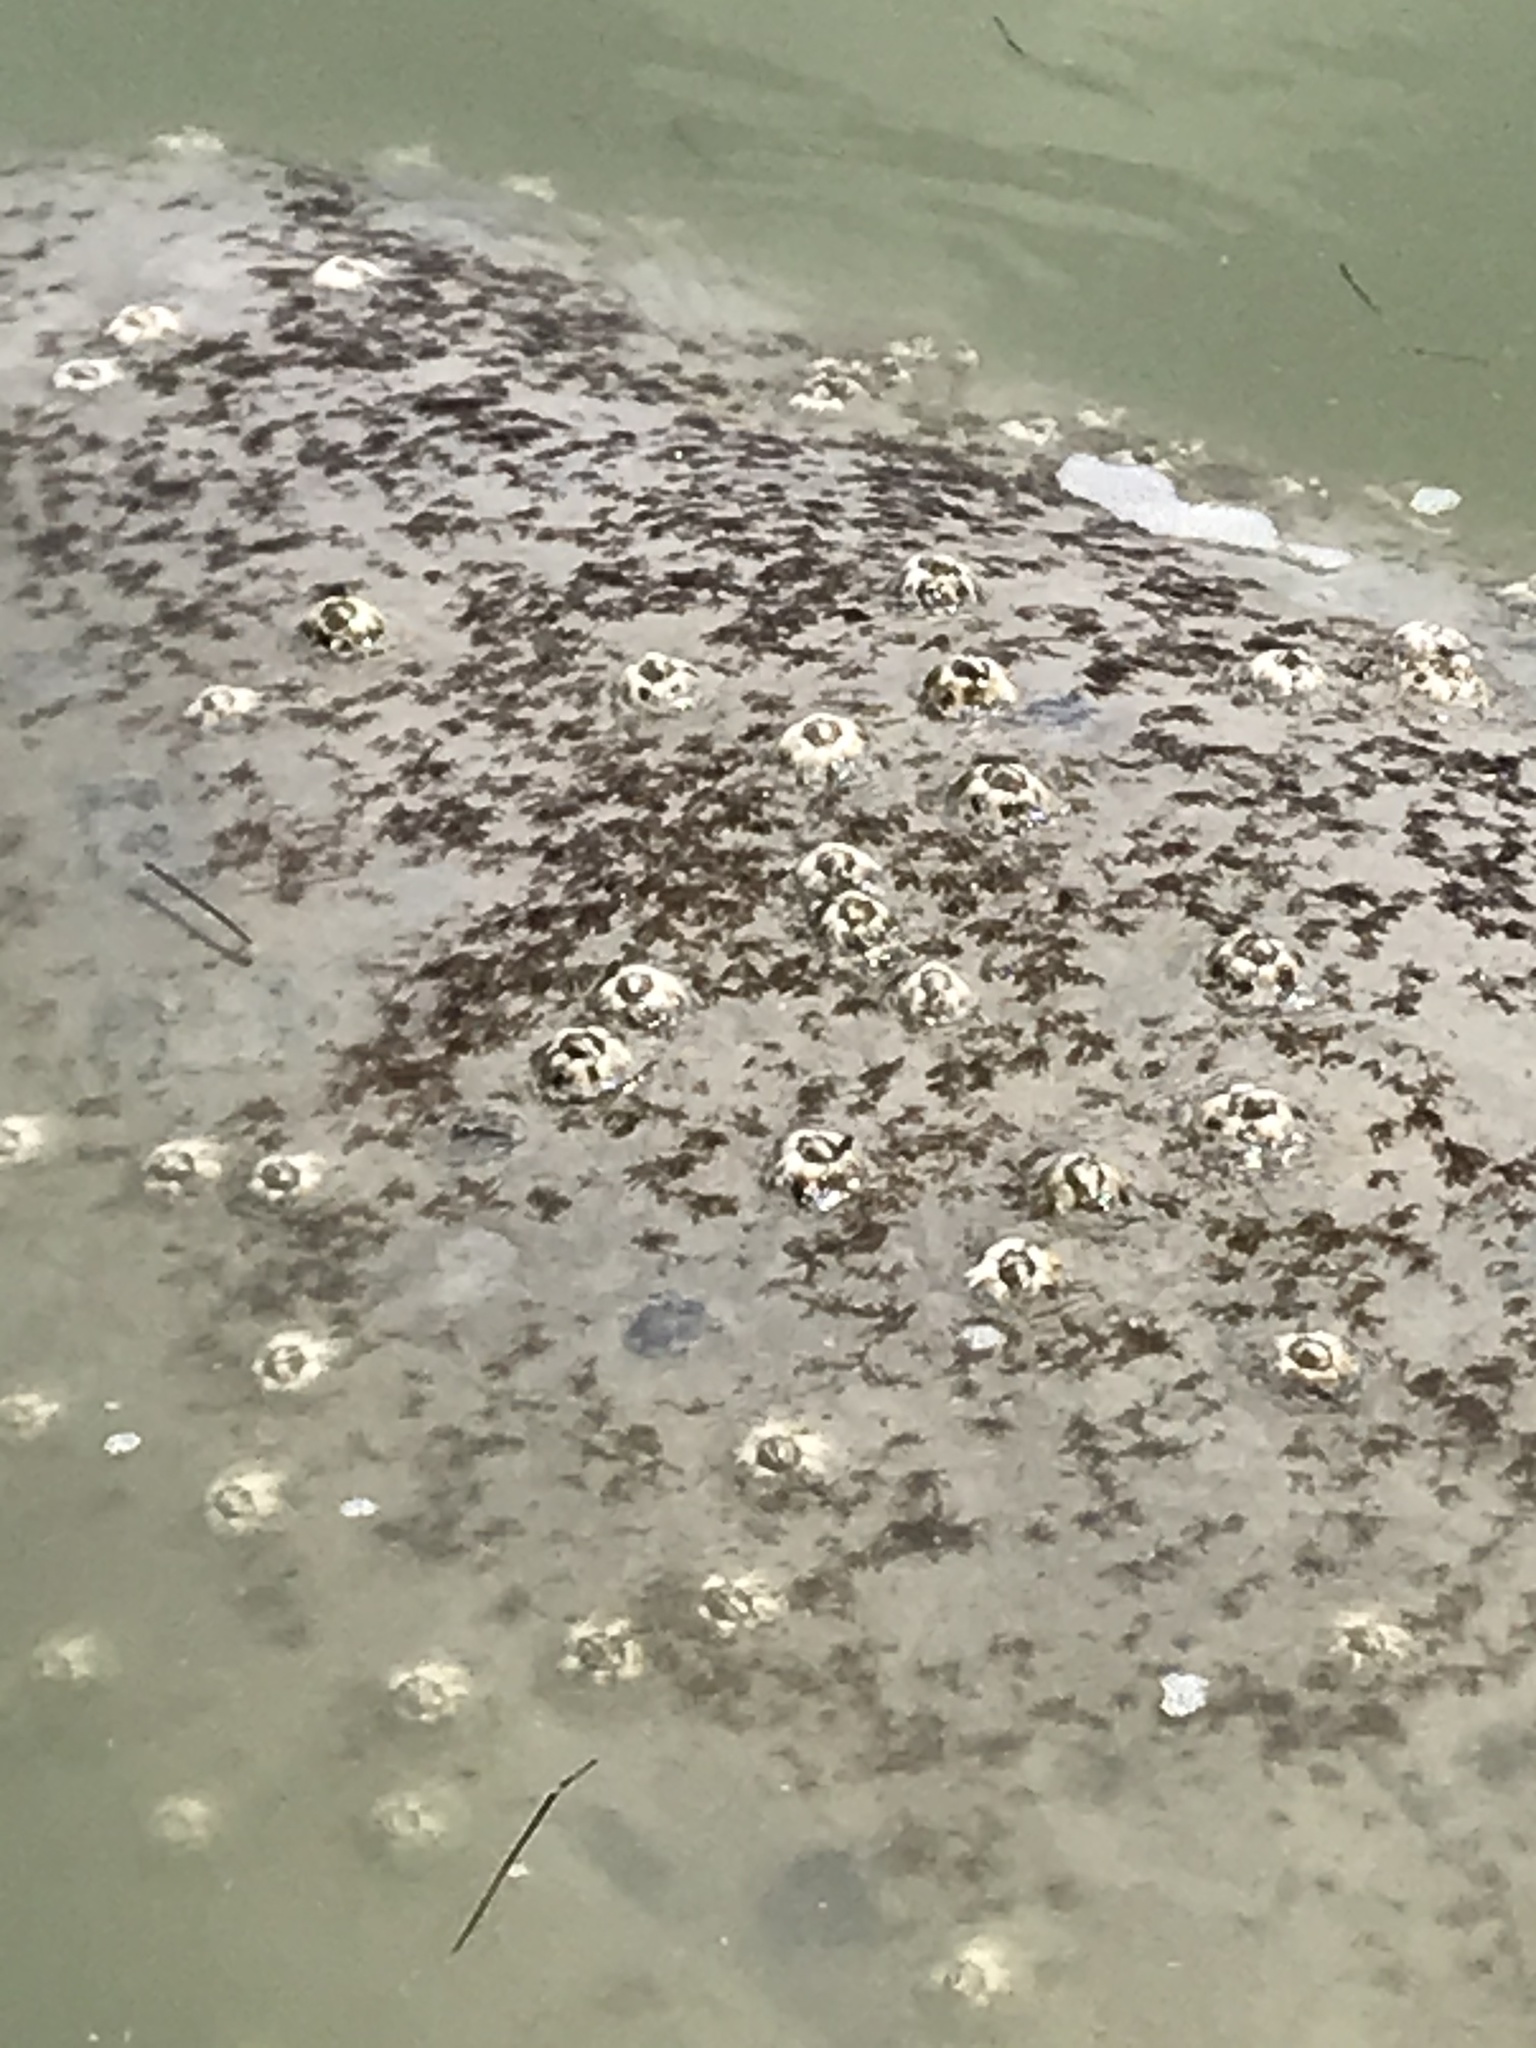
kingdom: Animalia
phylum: Arthropoda
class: Maxillopoda
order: Sessilia
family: Chelonibiidae
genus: Chelonibia
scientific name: Chelonibia testudinaria
